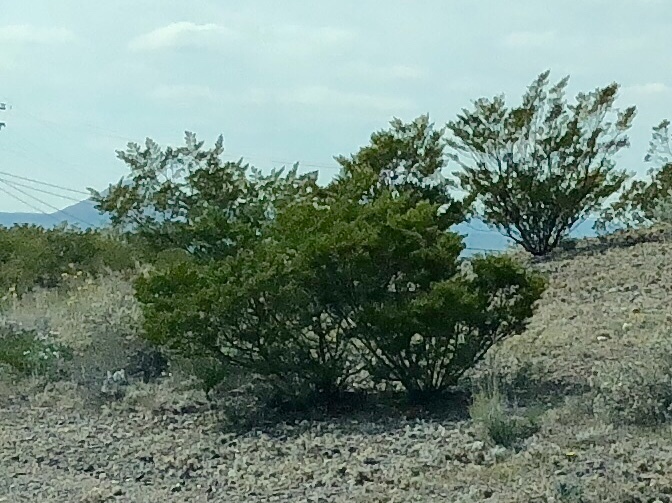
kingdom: Plantae
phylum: Tracheophyta
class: Magnoliopsida
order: Zygophyllales
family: Zygophyllaceae
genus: Larrea
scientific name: Larrea tridentata
